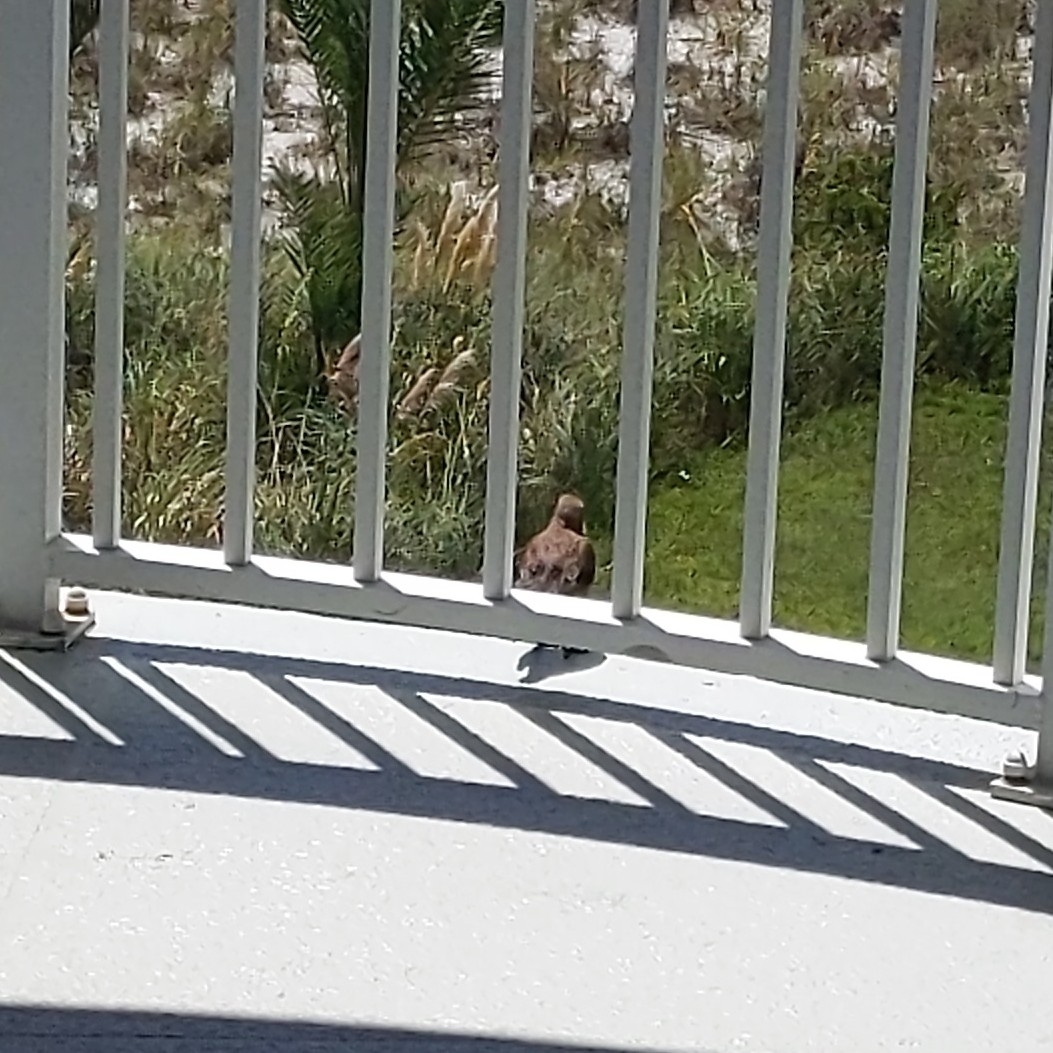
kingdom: Animalia
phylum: Chordata
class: Aves
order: Passeriformes
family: Sturnidae
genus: Sturnus
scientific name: Sturnus vulgaris
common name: Common starling
